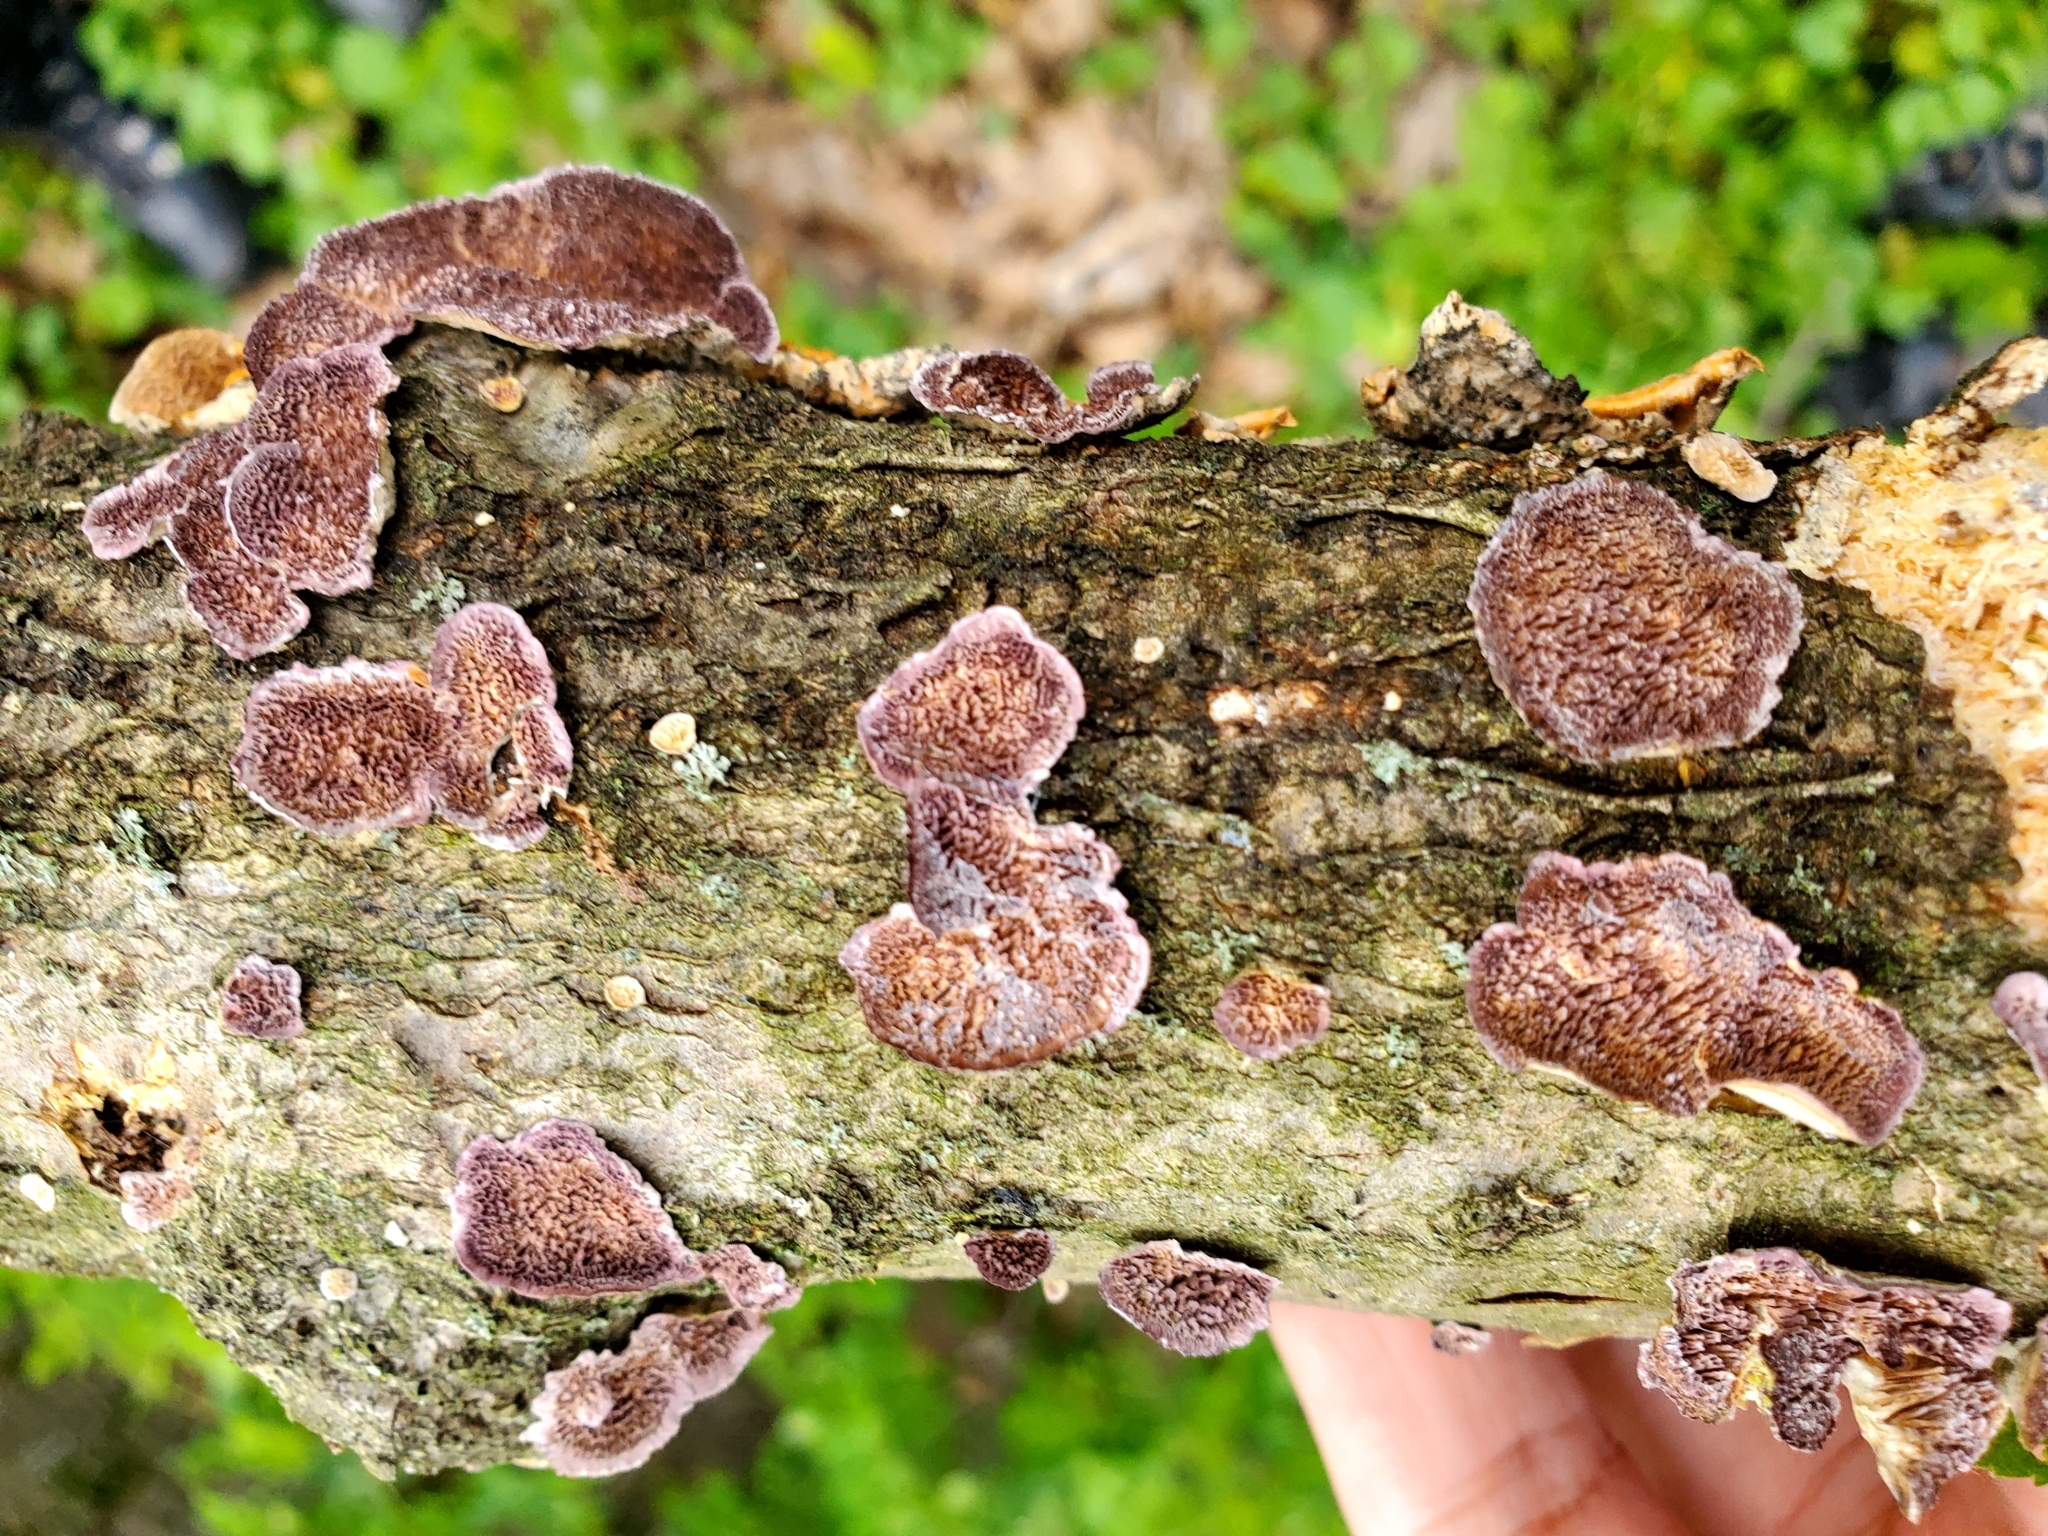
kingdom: Fungi
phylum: Basidiomycota
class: Agaricomycetes
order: Hymenochaetales
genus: Trichaptum
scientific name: Trichaptum biforme
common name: Violet-toothed polypore
